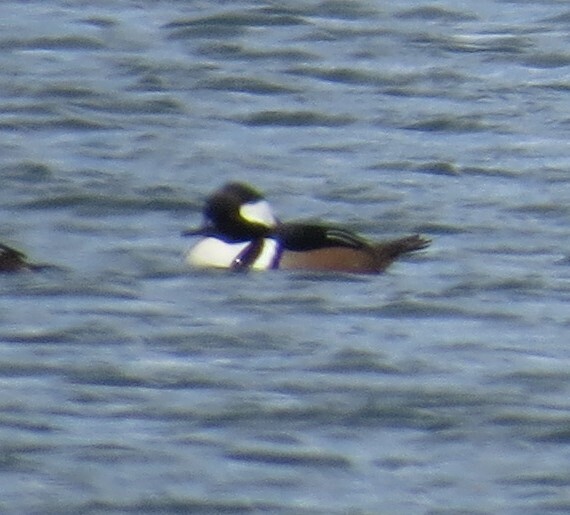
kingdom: Animalia
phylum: Chordata
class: Aves
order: Anseriformes
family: Anatidae
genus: Lophodytes
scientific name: Lophodytes cucullatus
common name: Hooded merganser
